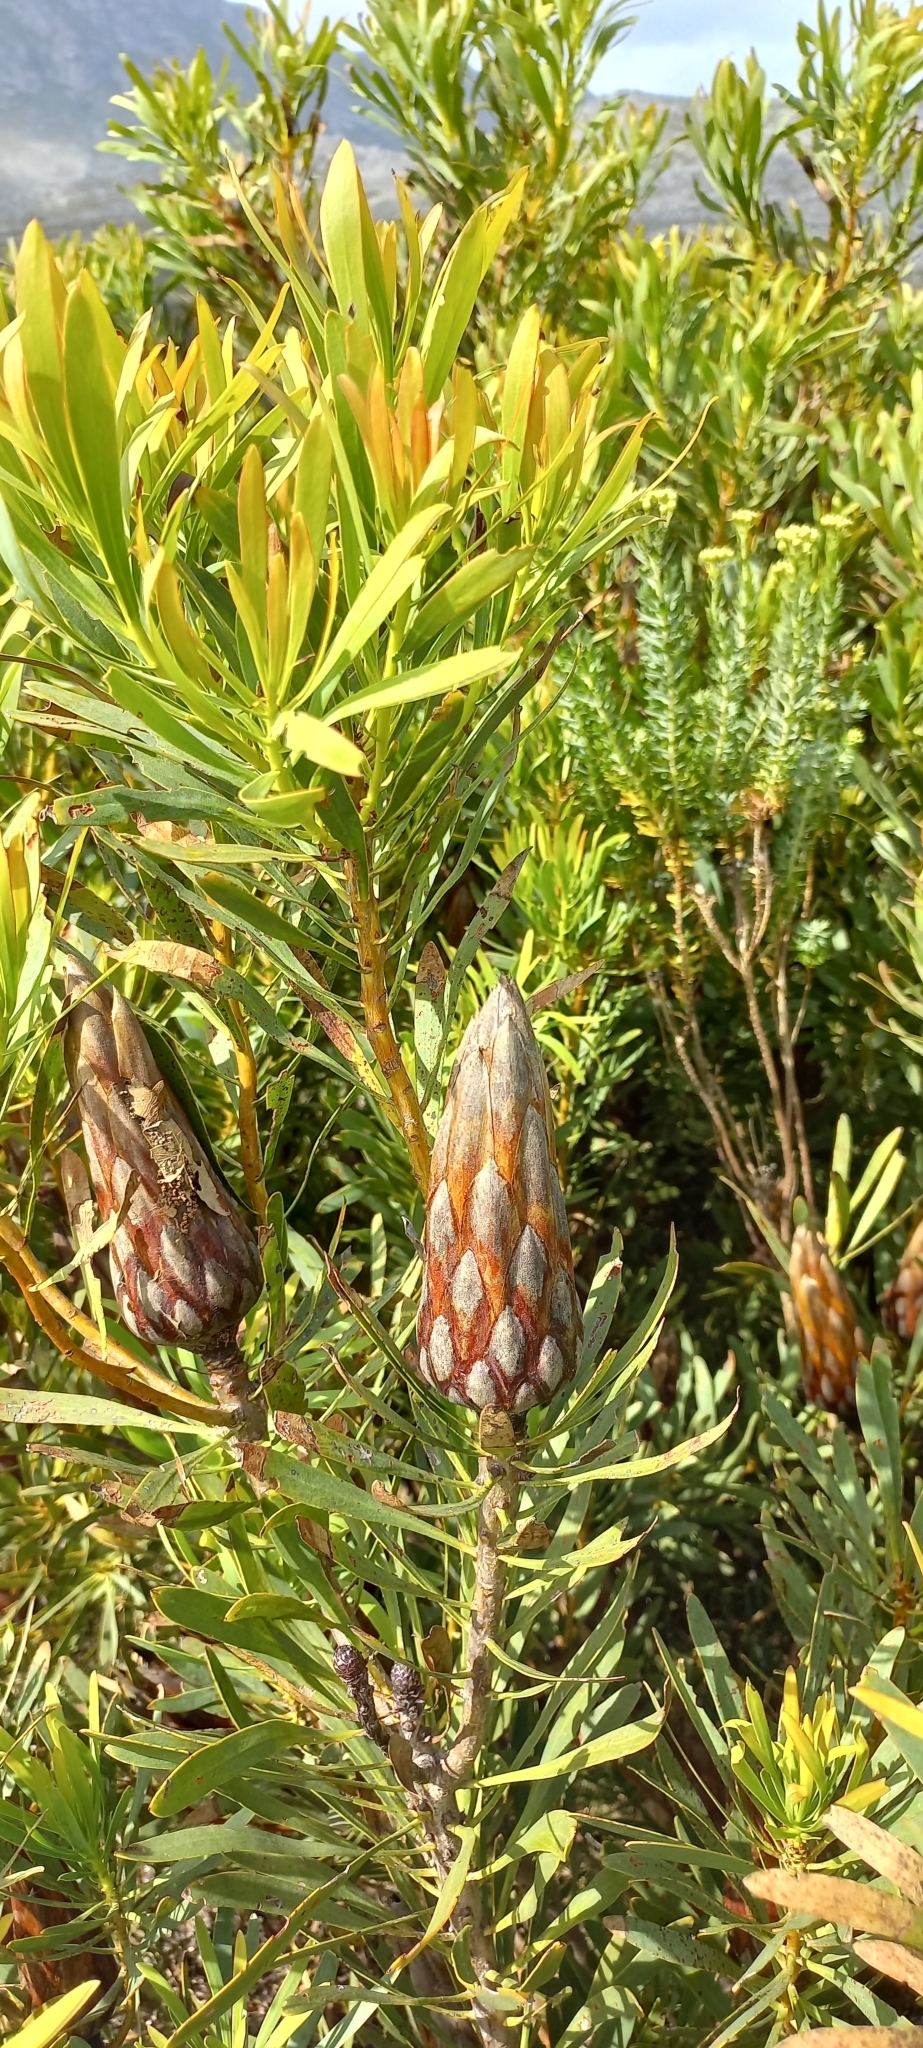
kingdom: Plantae
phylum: Tracheophyta
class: Magnoliopsida
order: Proteales
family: Proteaceae
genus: Protea
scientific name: Protea repens
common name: Sugarbush
